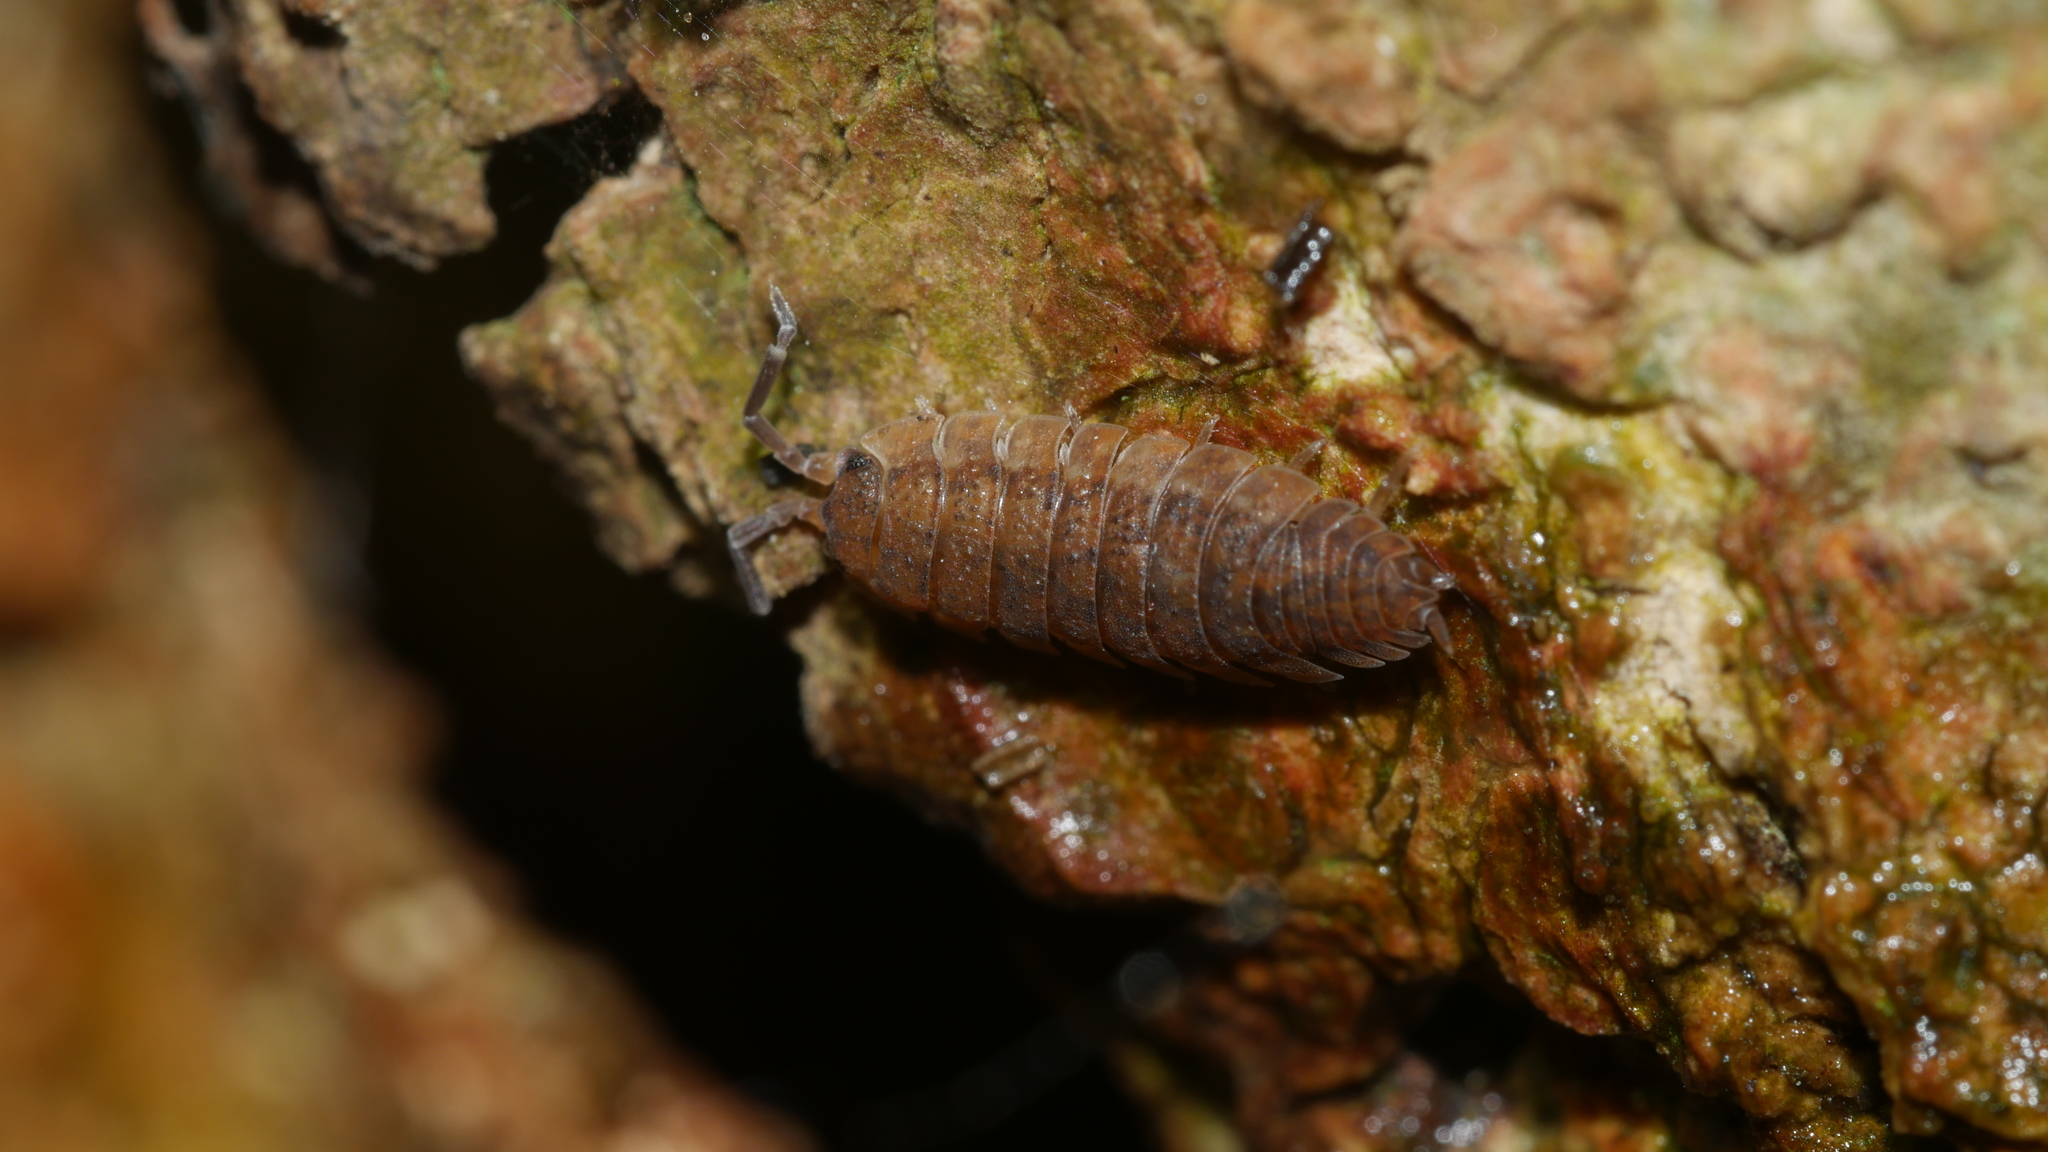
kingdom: Animalia
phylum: Arthropoda
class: Malacostraca
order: Isopoda
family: Porcellionidae
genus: Porcellio
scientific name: Porcellio scaber
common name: Common rough woodlouse
